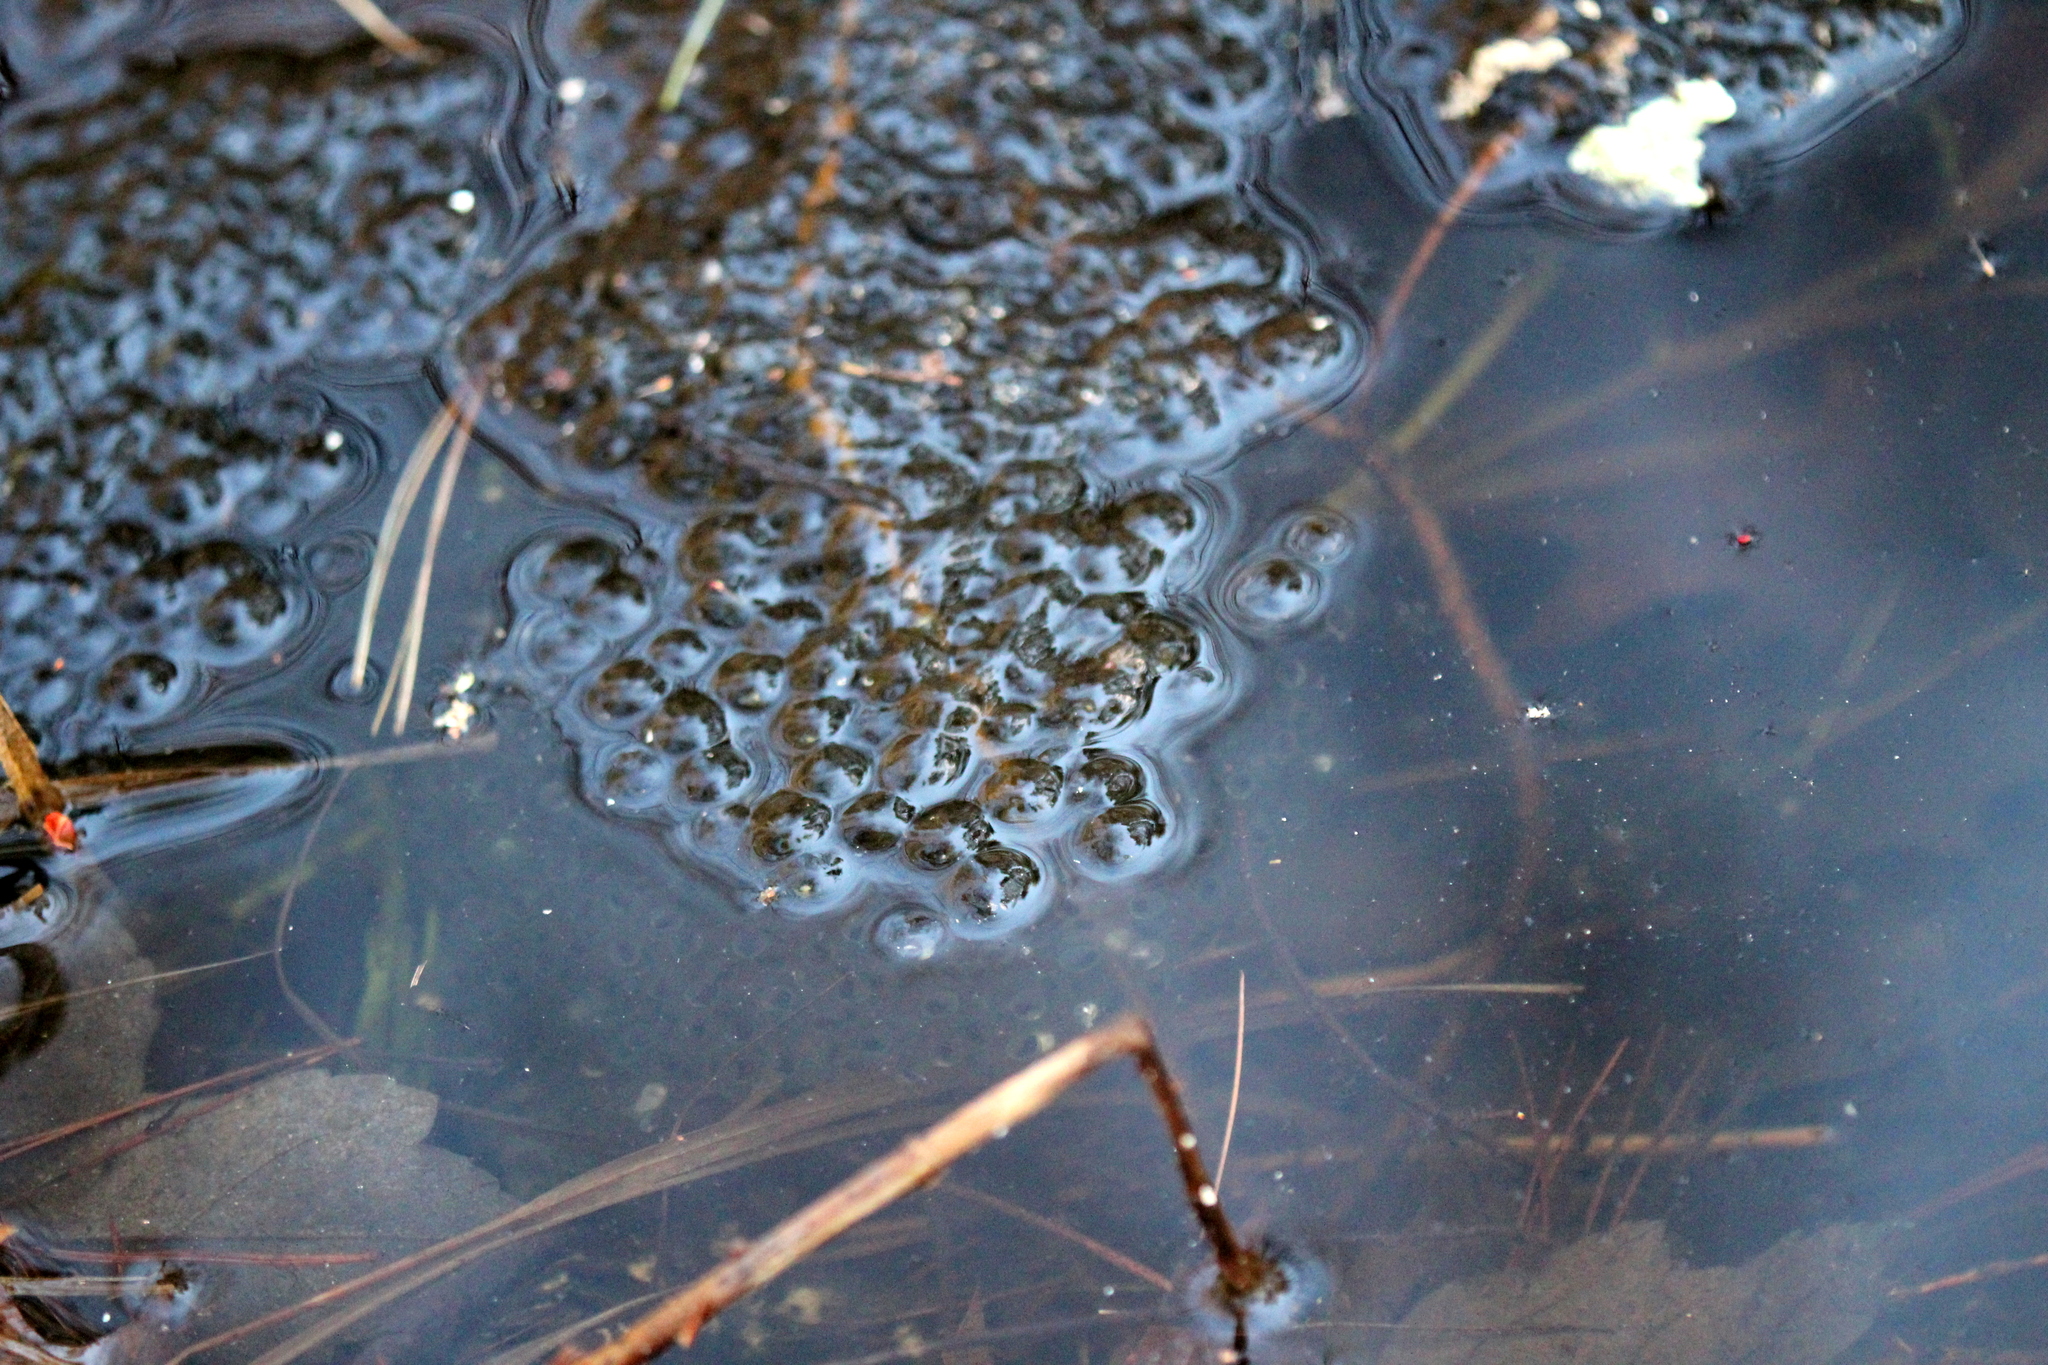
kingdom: Animalia
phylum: Chordata
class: Amphibia
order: Anura
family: Ranidae
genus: Lithobates
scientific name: Lithobates sylvaticus
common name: Wood frog
